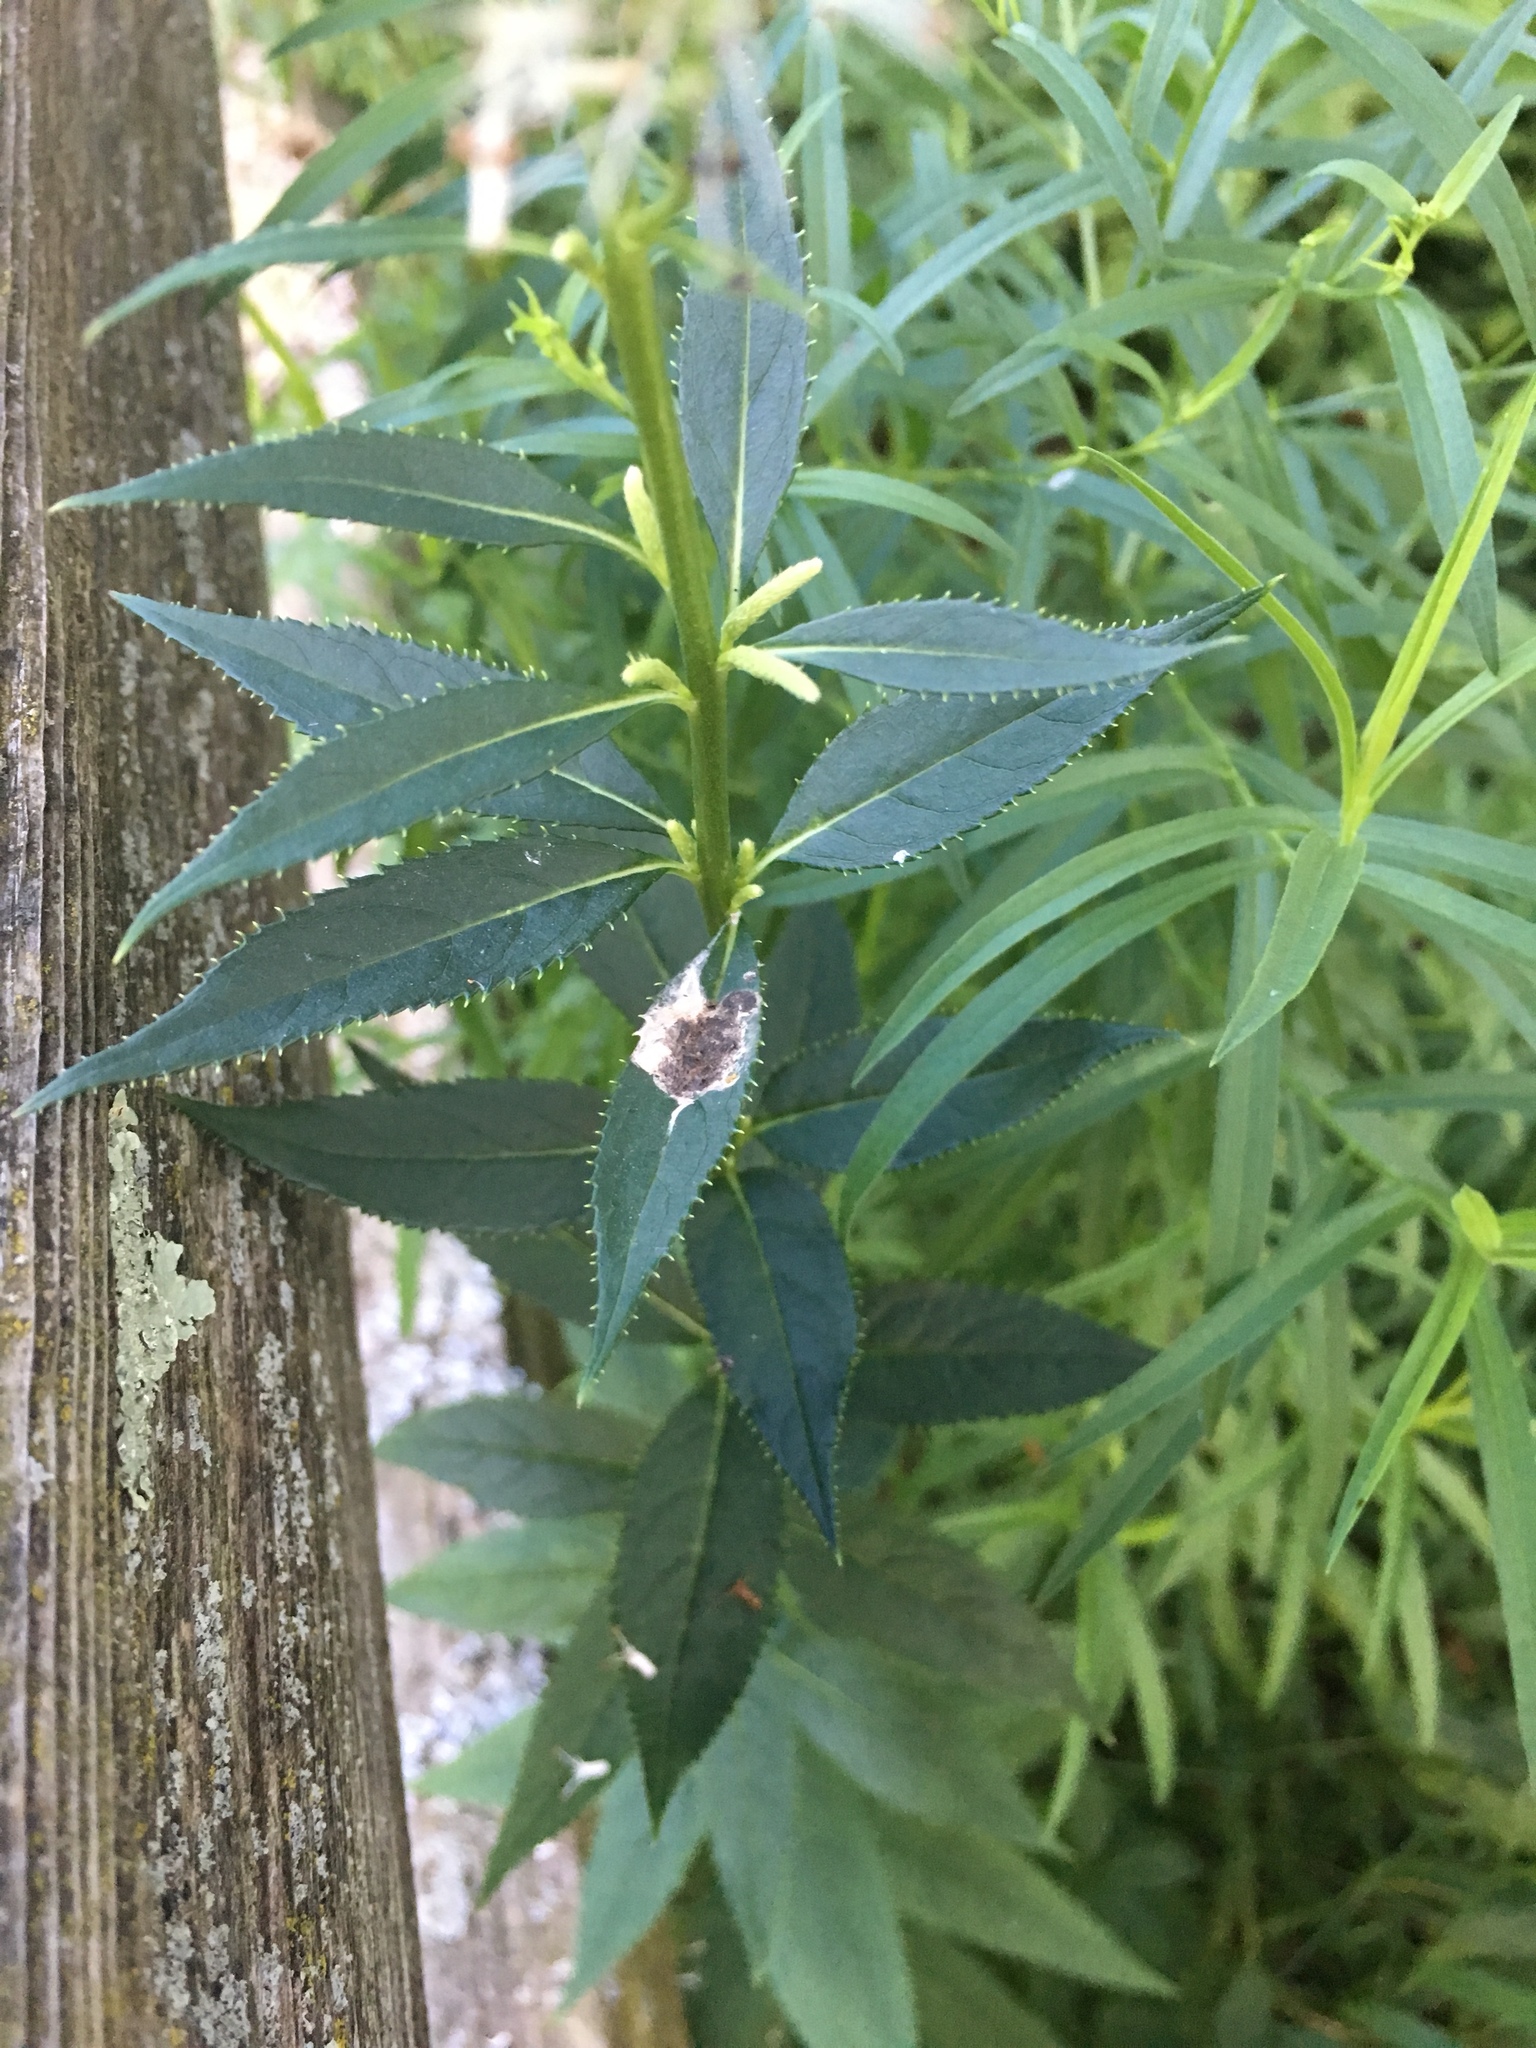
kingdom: Plantae
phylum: Tracheophyta
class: Magnoliopsida
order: Lamiales
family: Plantaginaceae
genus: Veronicastrum
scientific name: Veronicastrum virginicum
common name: Blackroot
